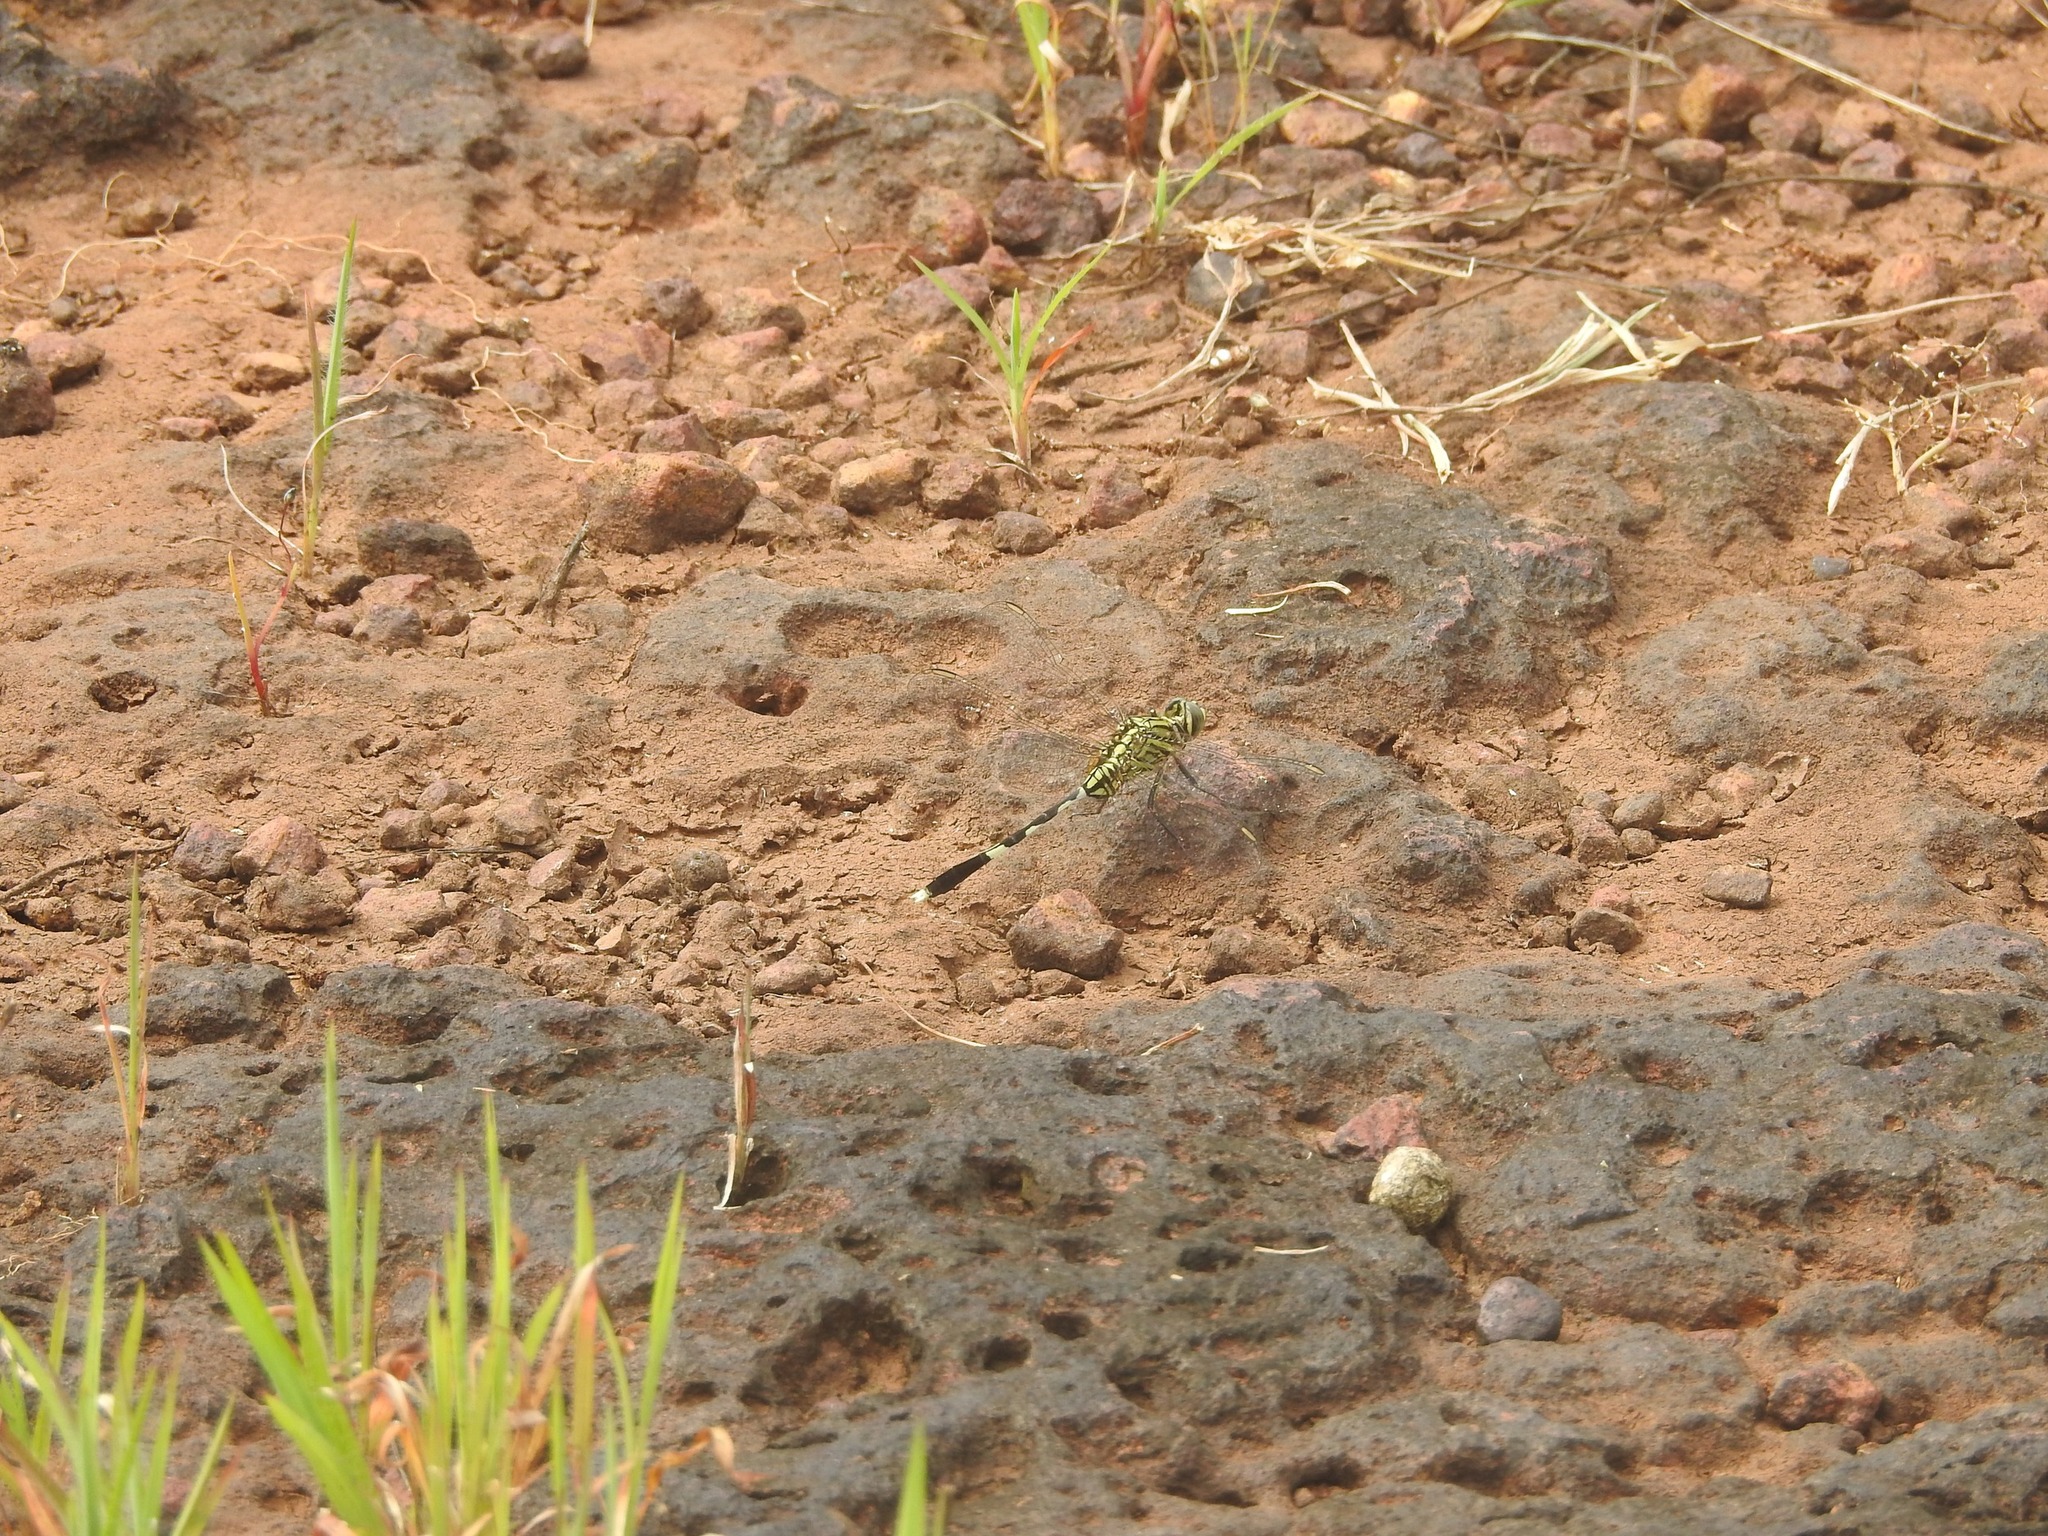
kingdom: Animalia
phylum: Arthropoda
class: Insecta
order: Odonata
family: Libellulidae
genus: Orthetrum
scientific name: Orthetrum sabina
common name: Slender skimmer
